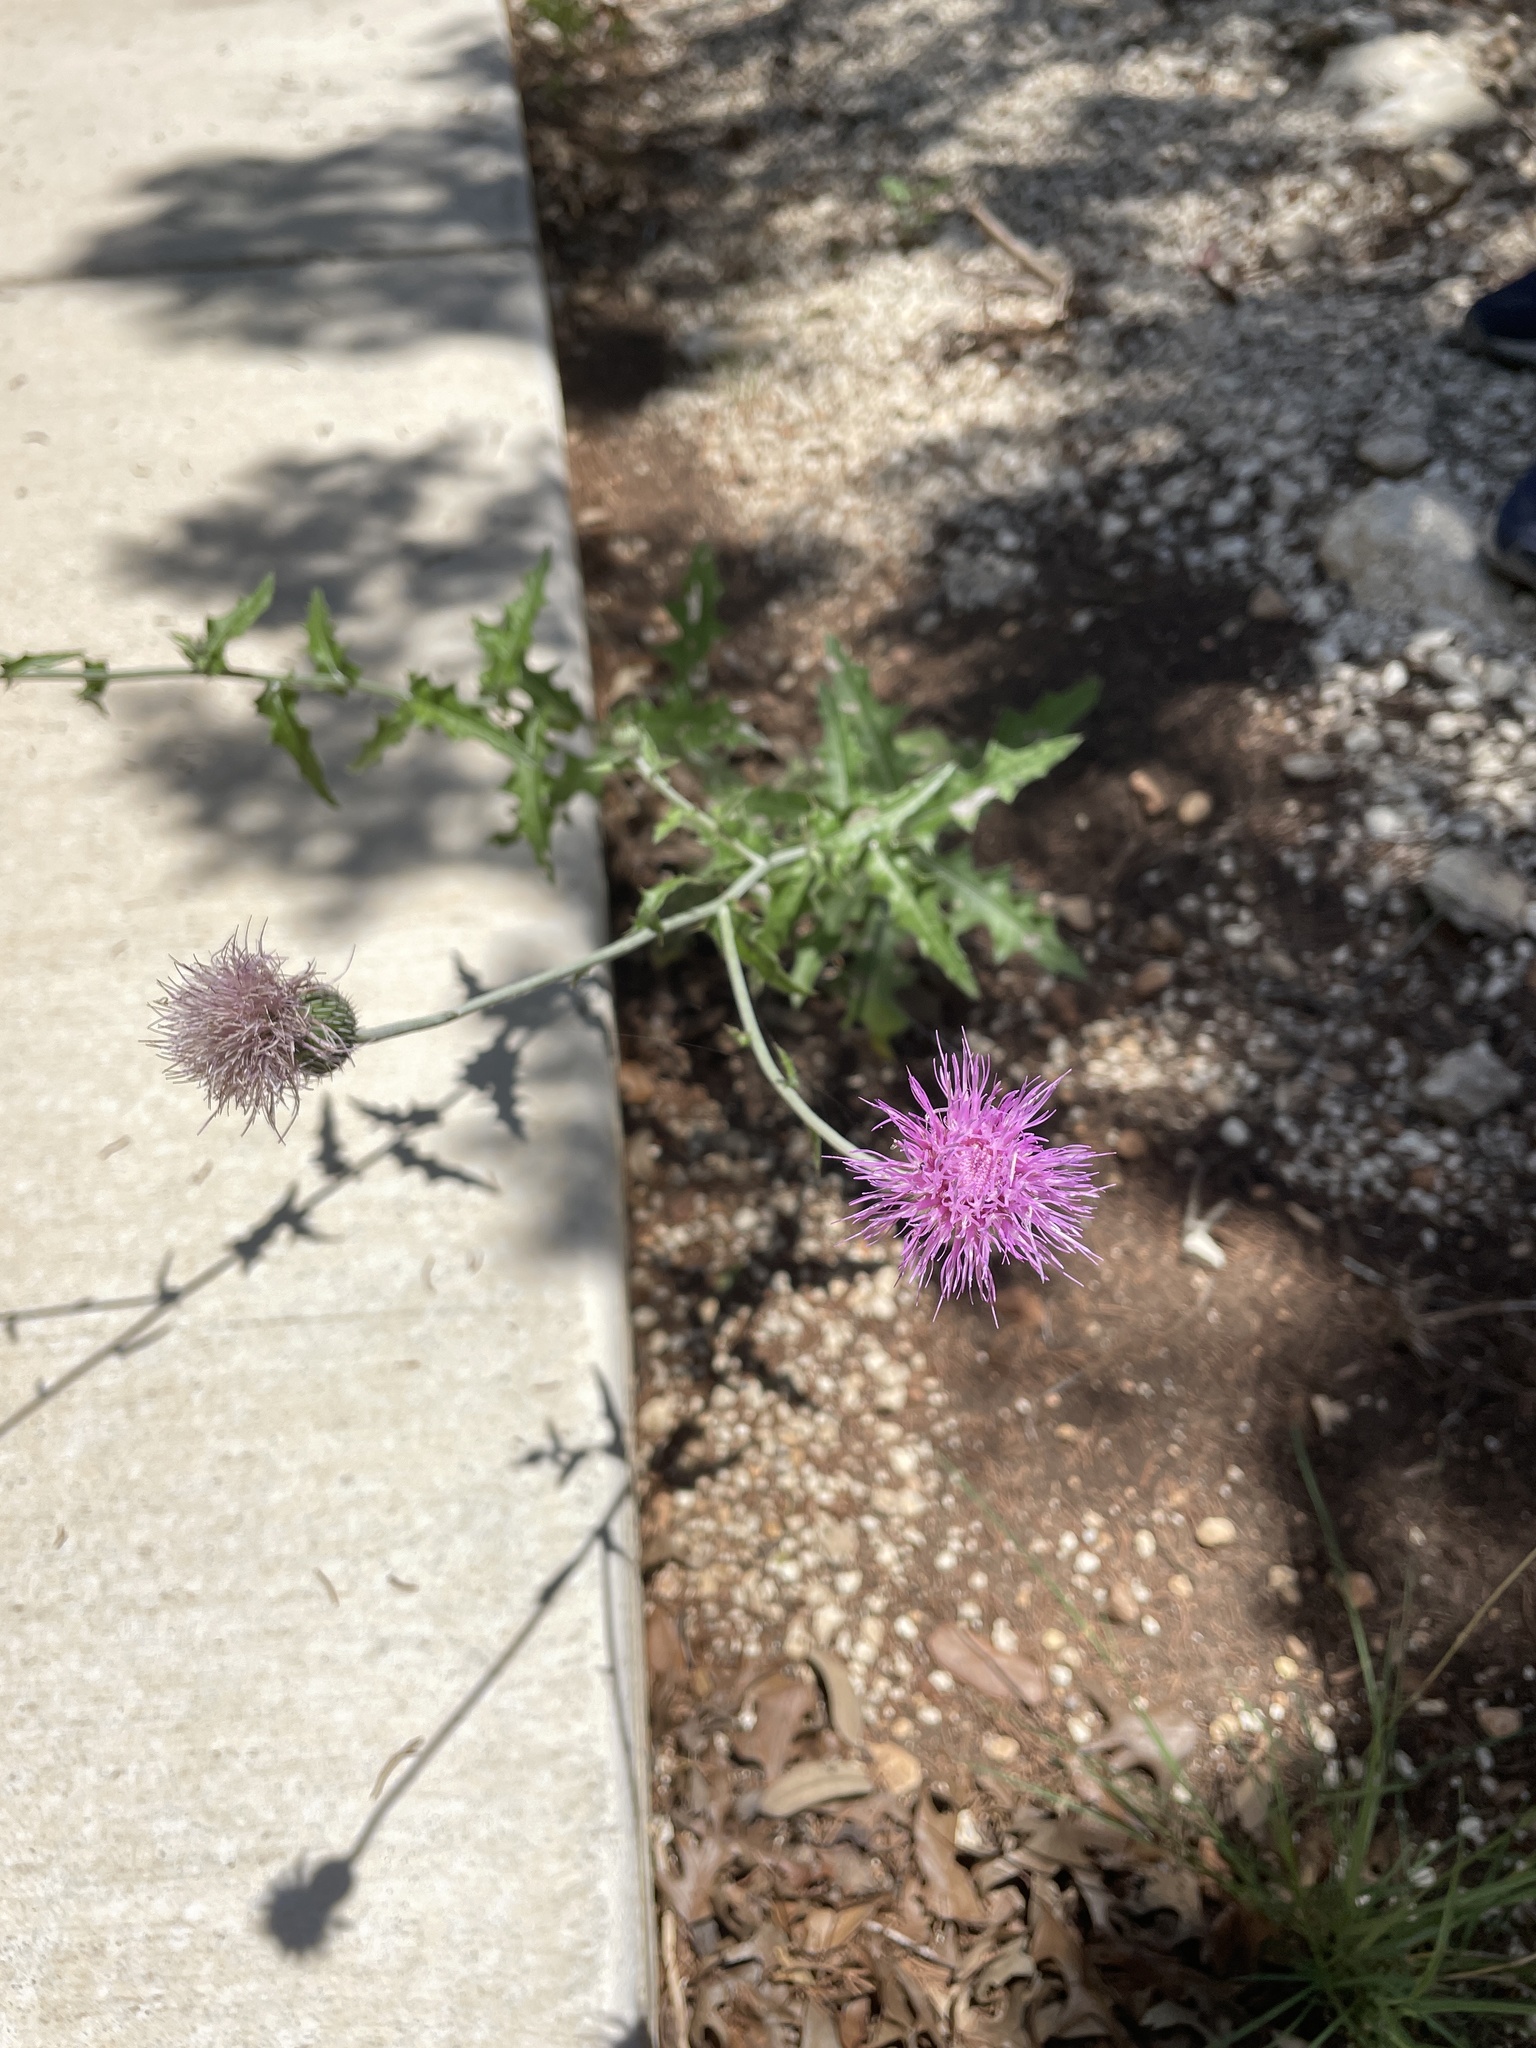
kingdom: Plantae
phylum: Tracheophyta
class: Magnoliopsida
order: Asterales
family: Asteraceae
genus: Cirsium
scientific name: Cirsium texanum
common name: Texas purple thistle
